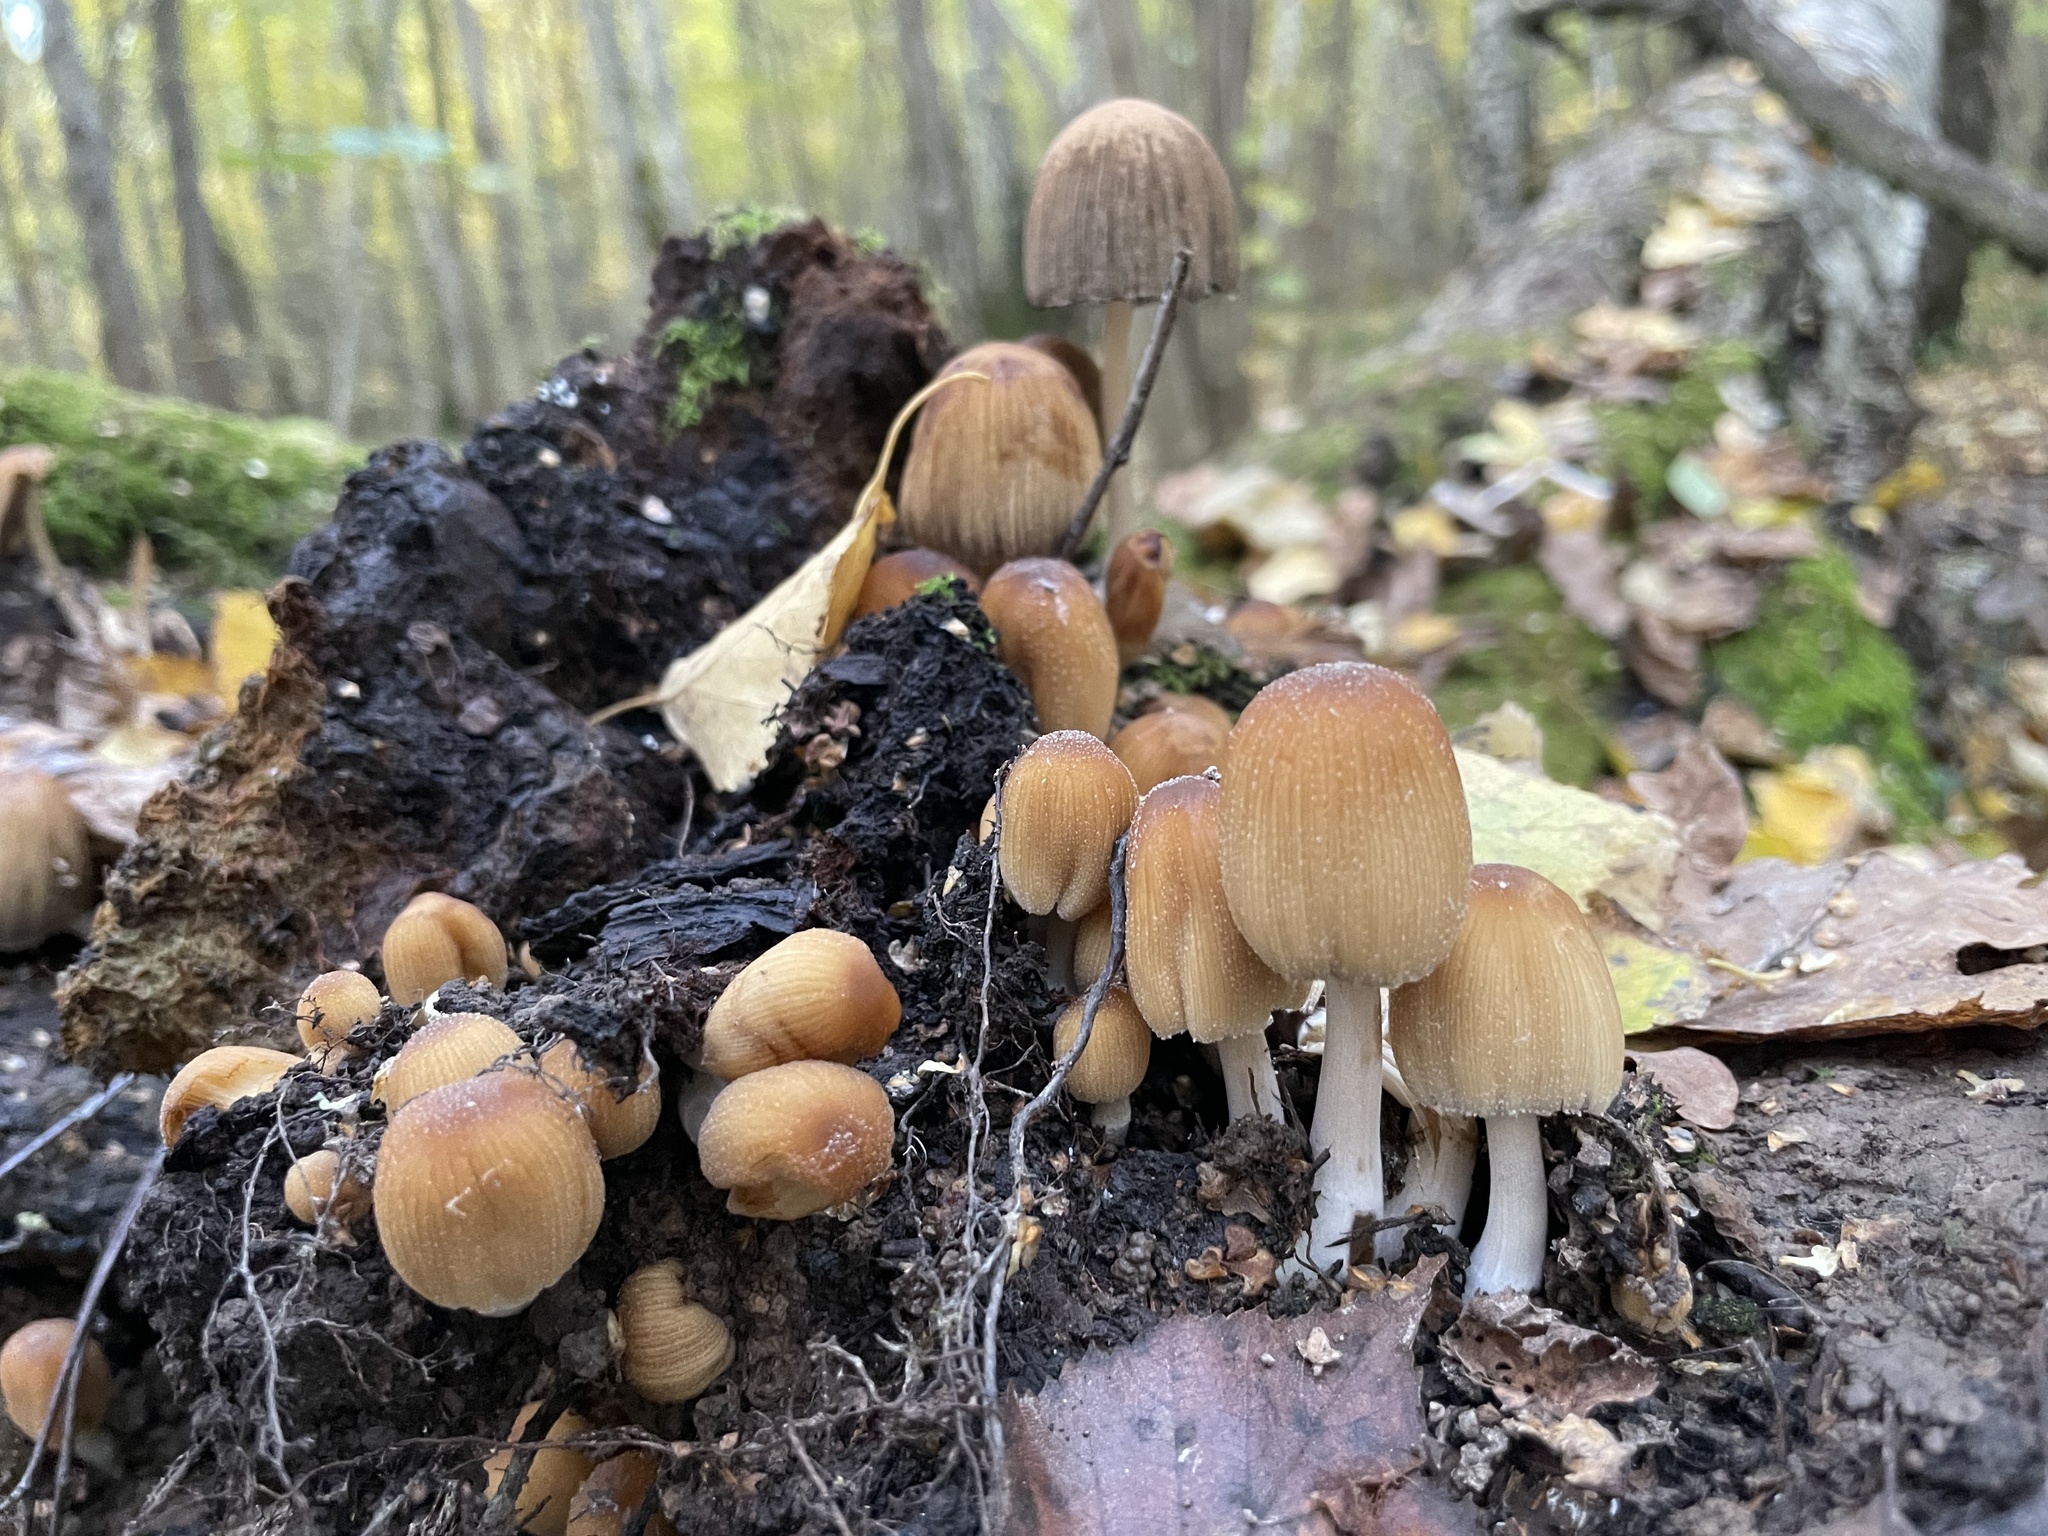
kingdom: Fungi
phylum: Basidiomycota
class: Agaricomycetes
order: Agaricales
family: Psathyrellaceae
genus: Coprinellus
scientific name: Coprinellus micaceus
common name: Glistening ink-cap
